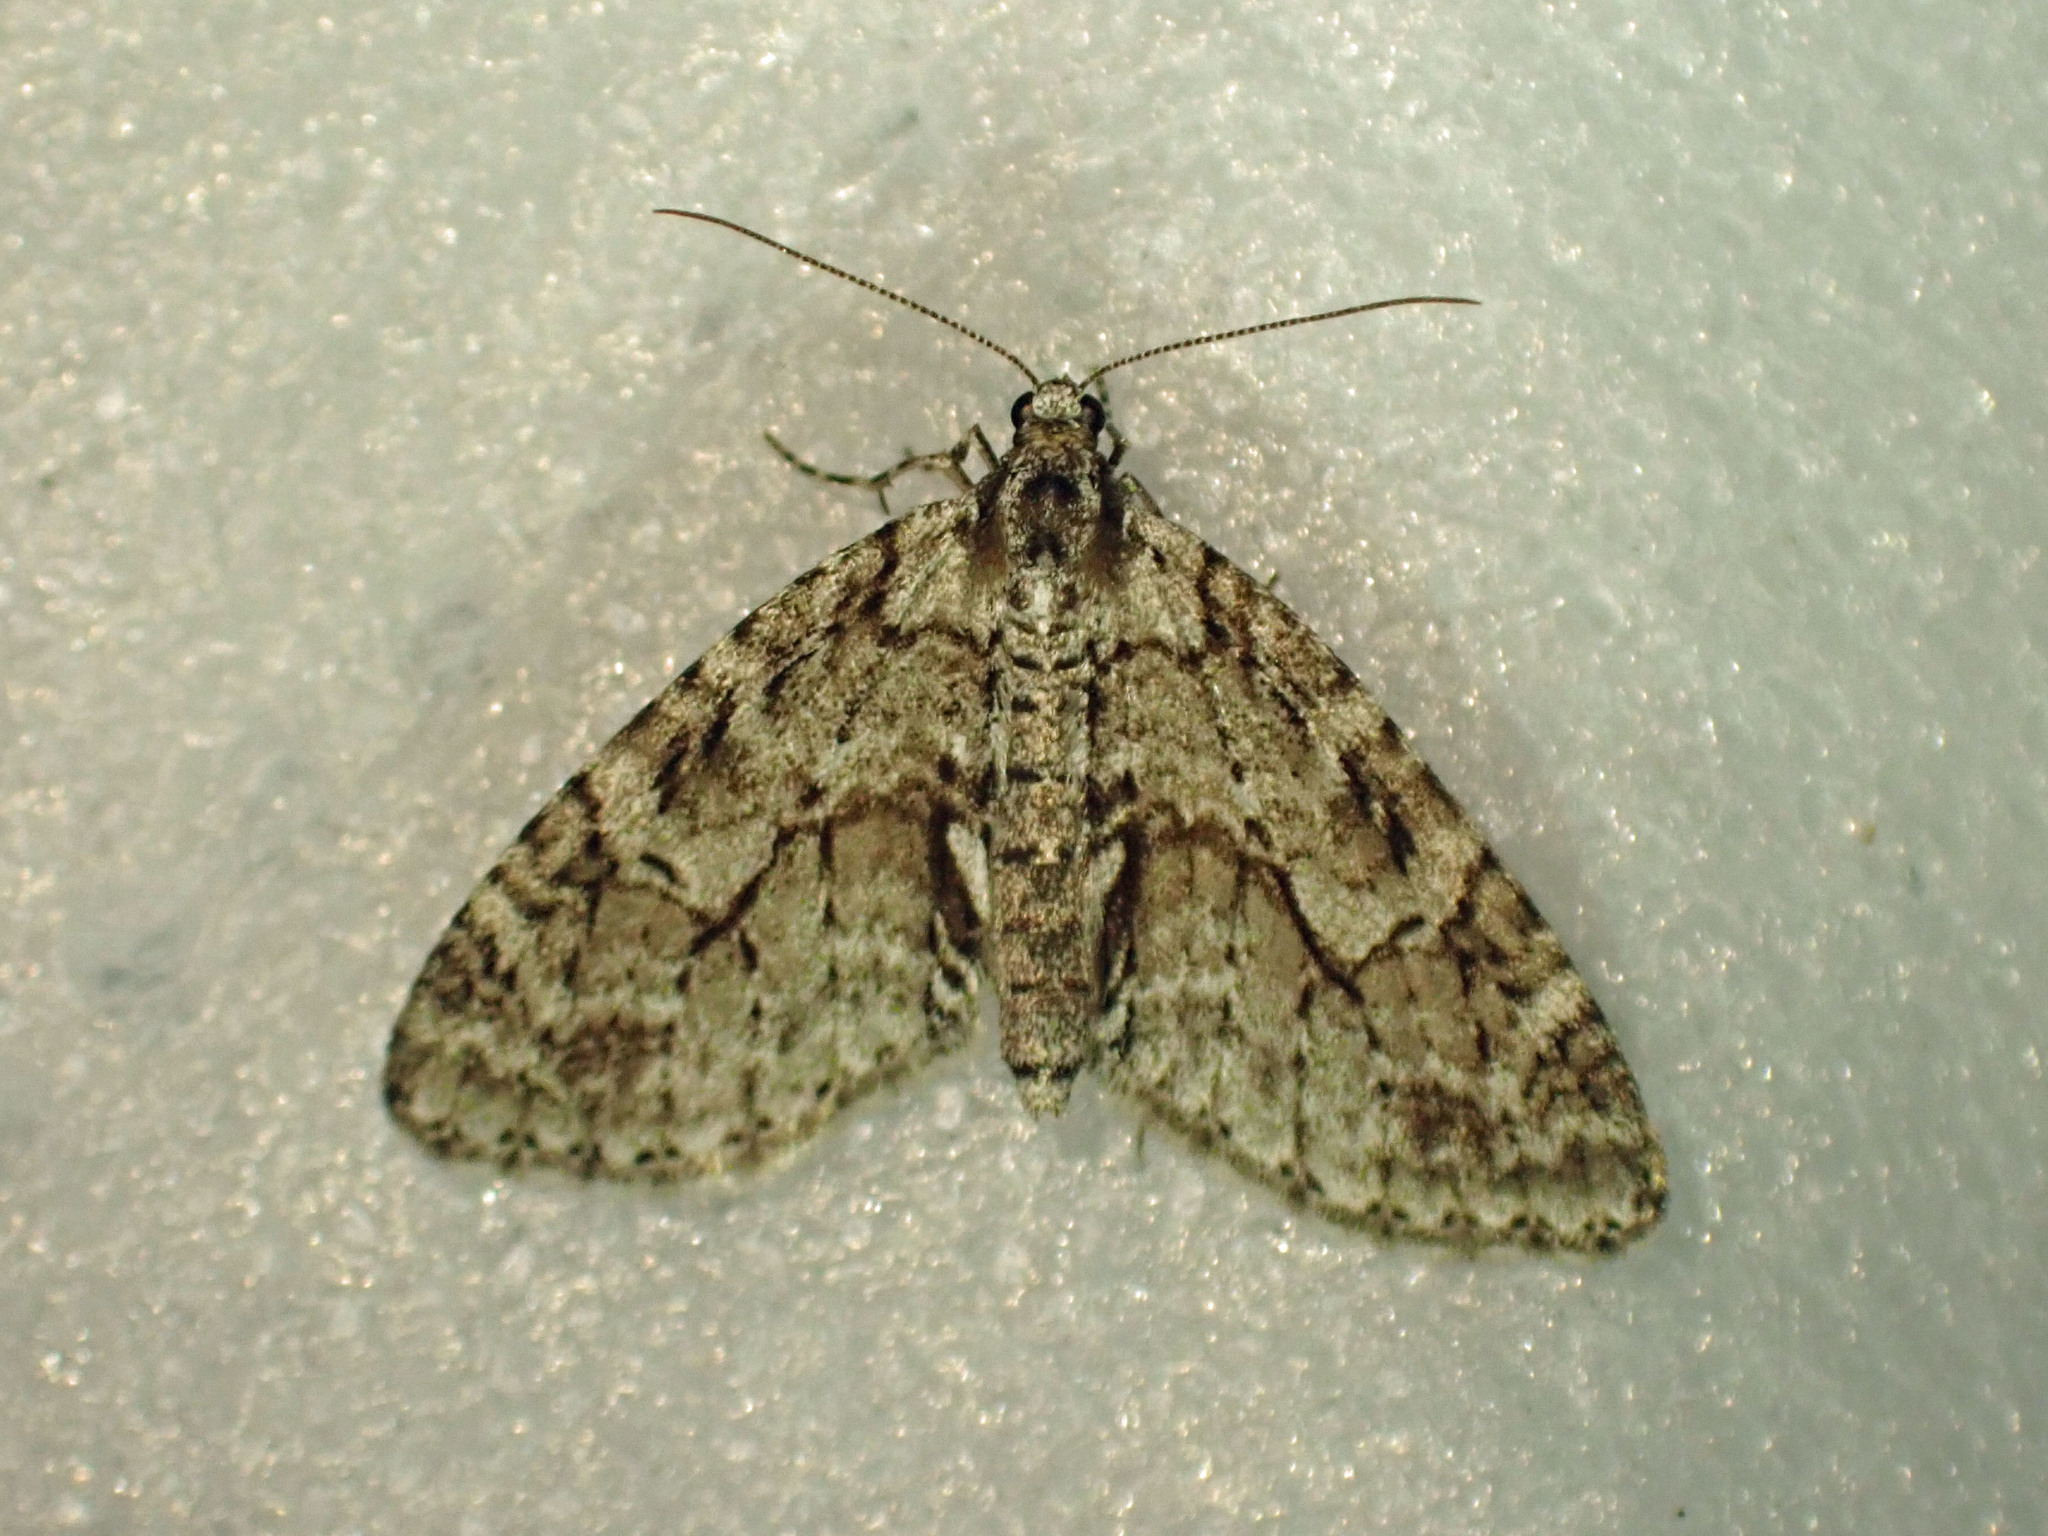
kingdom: Animalia
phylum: Arthropoda
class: Insecta
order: Lepidoptera
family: Geometridae
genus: Cladara
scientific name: Cladara limitaria
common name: Mottled gray carpet
